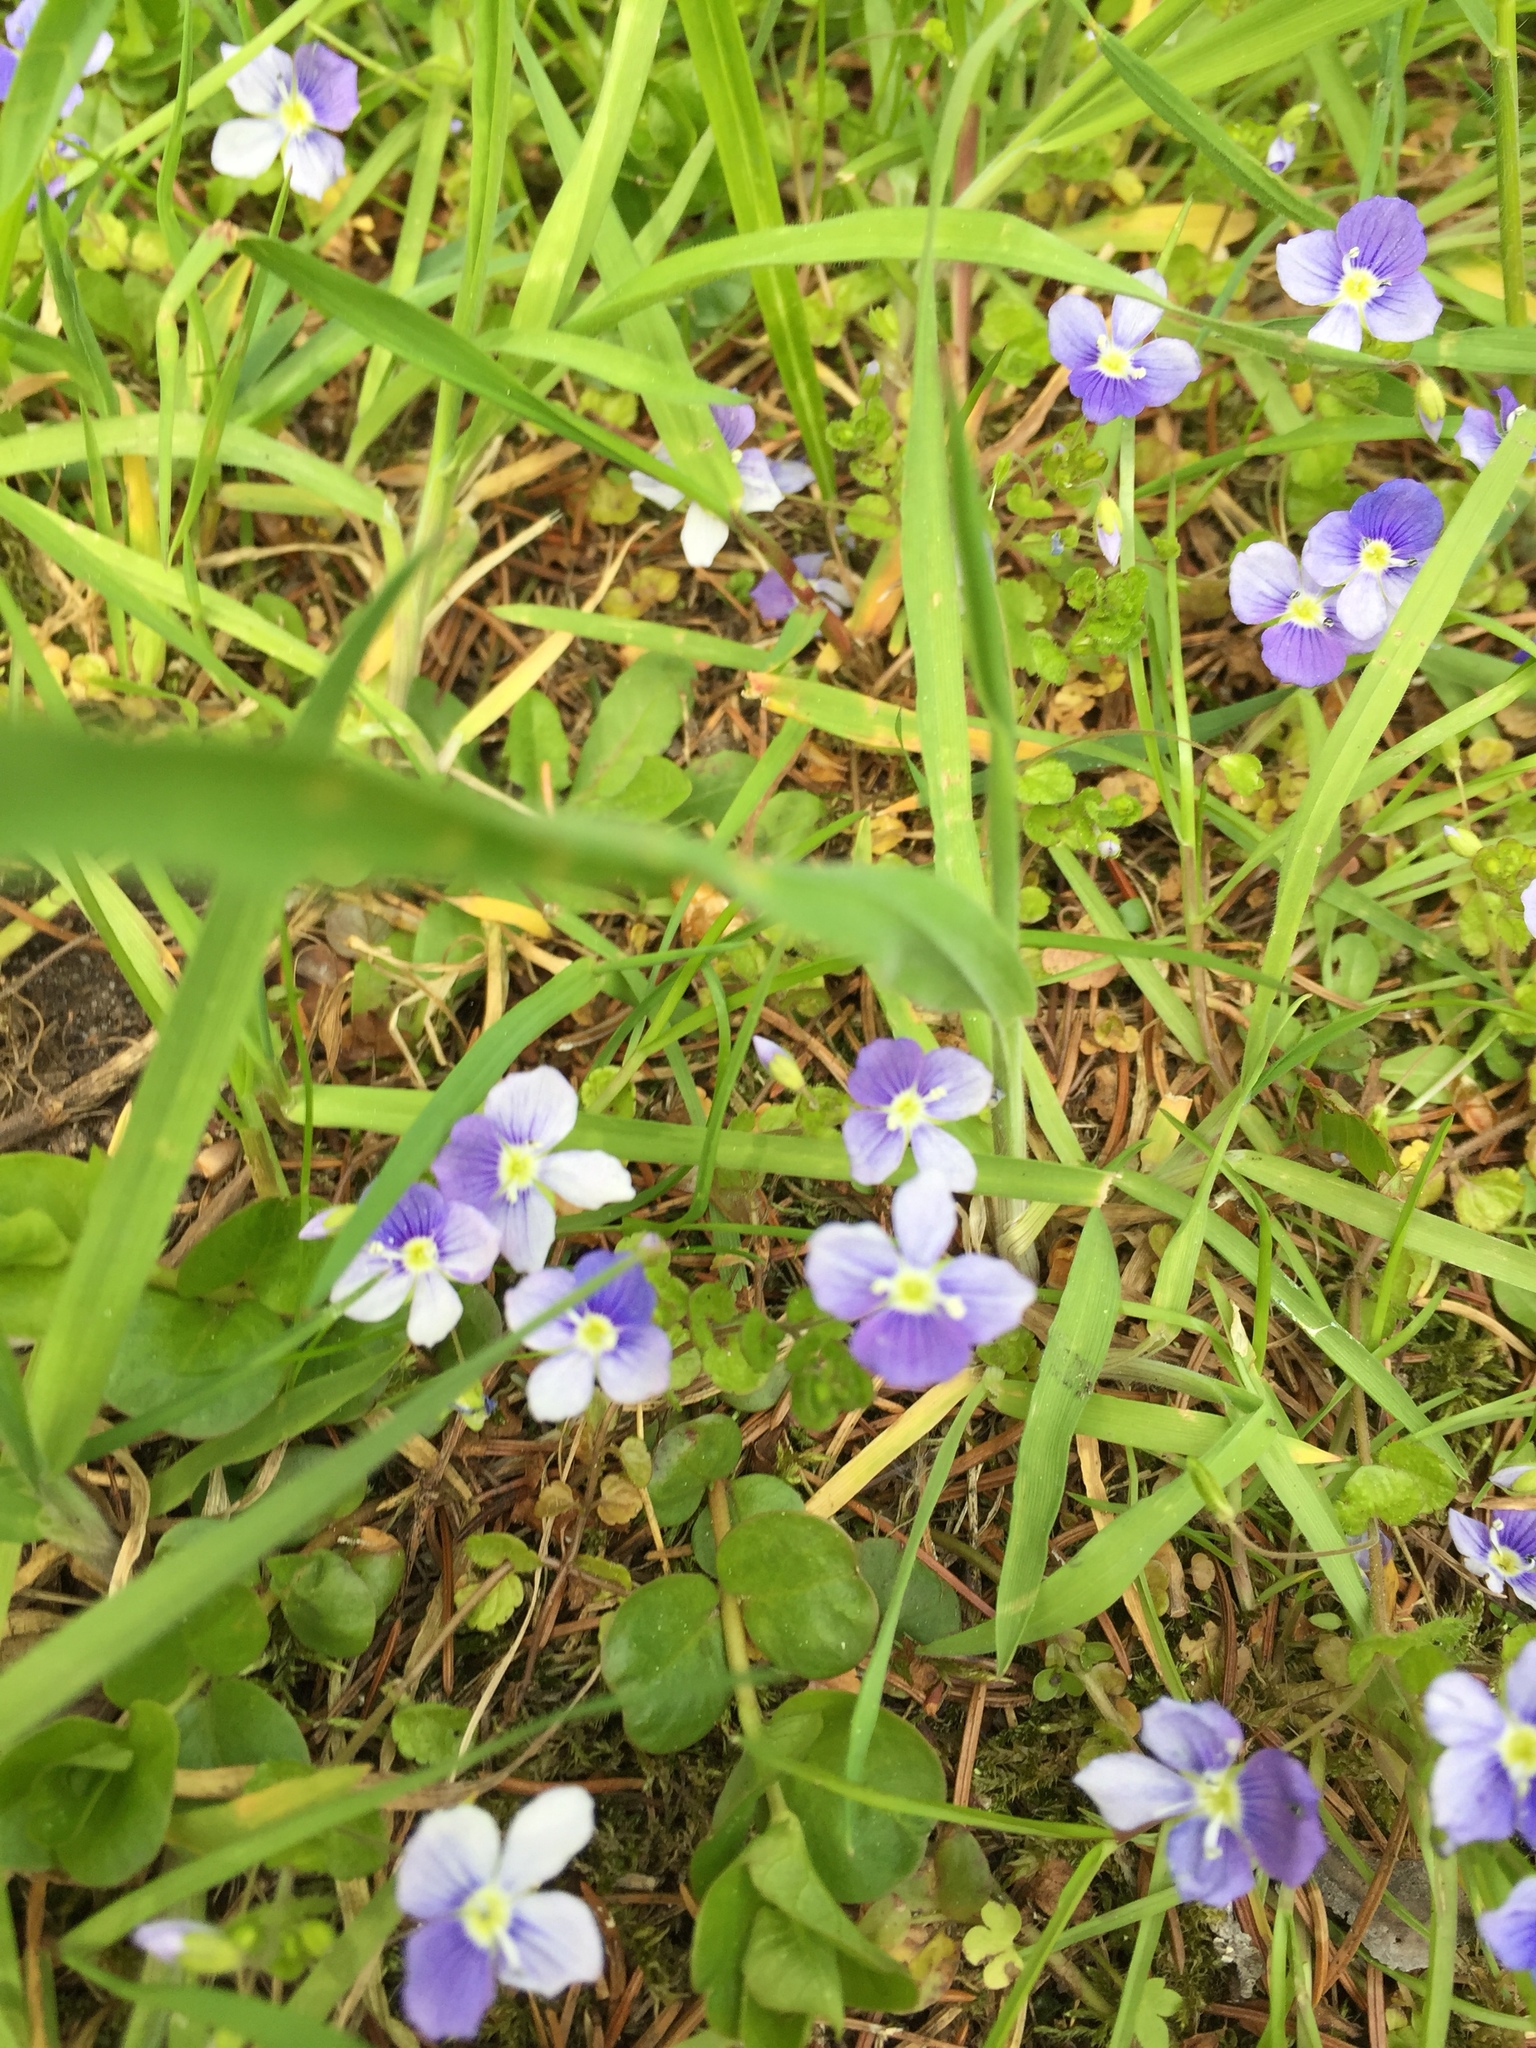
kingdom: Plantae
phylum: Tracheophyta
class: Magnoliopsida
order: Lamiales
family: Plantaginaceae
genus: Veronica
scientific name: Veronica filiformis
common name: Slender speedwell
